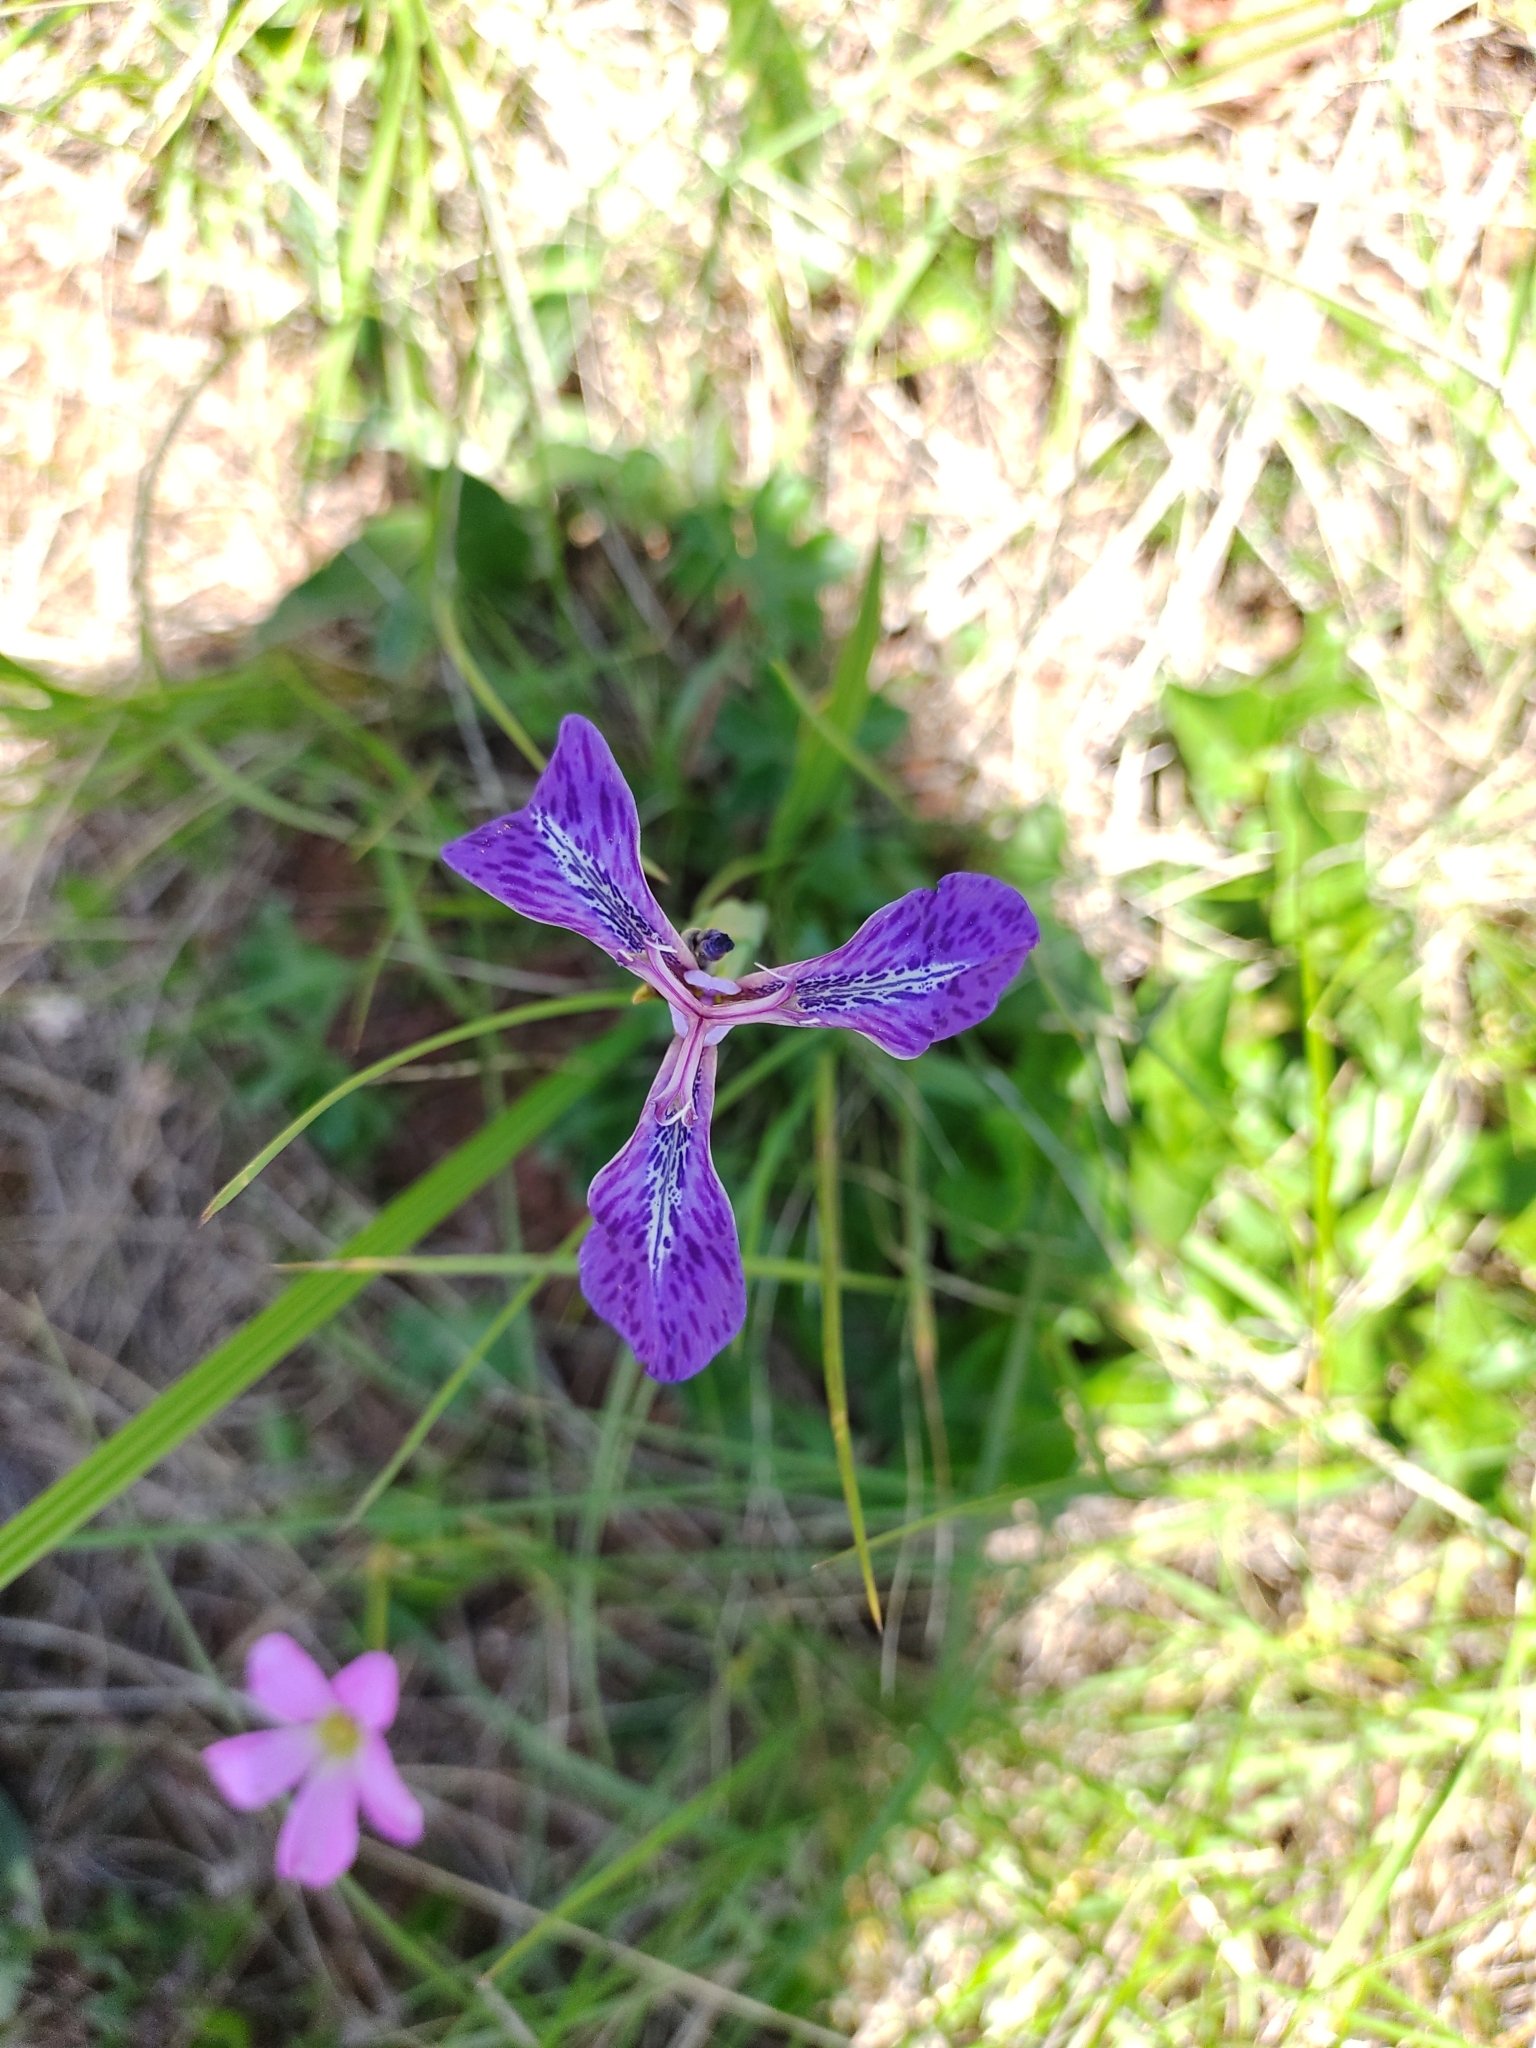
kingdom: Plantae
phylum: Tracheophyta
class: Liliopsida
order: Asparagales
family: Iridaceae
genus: Mastigostyla
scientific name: Mastigostyla spathacea
